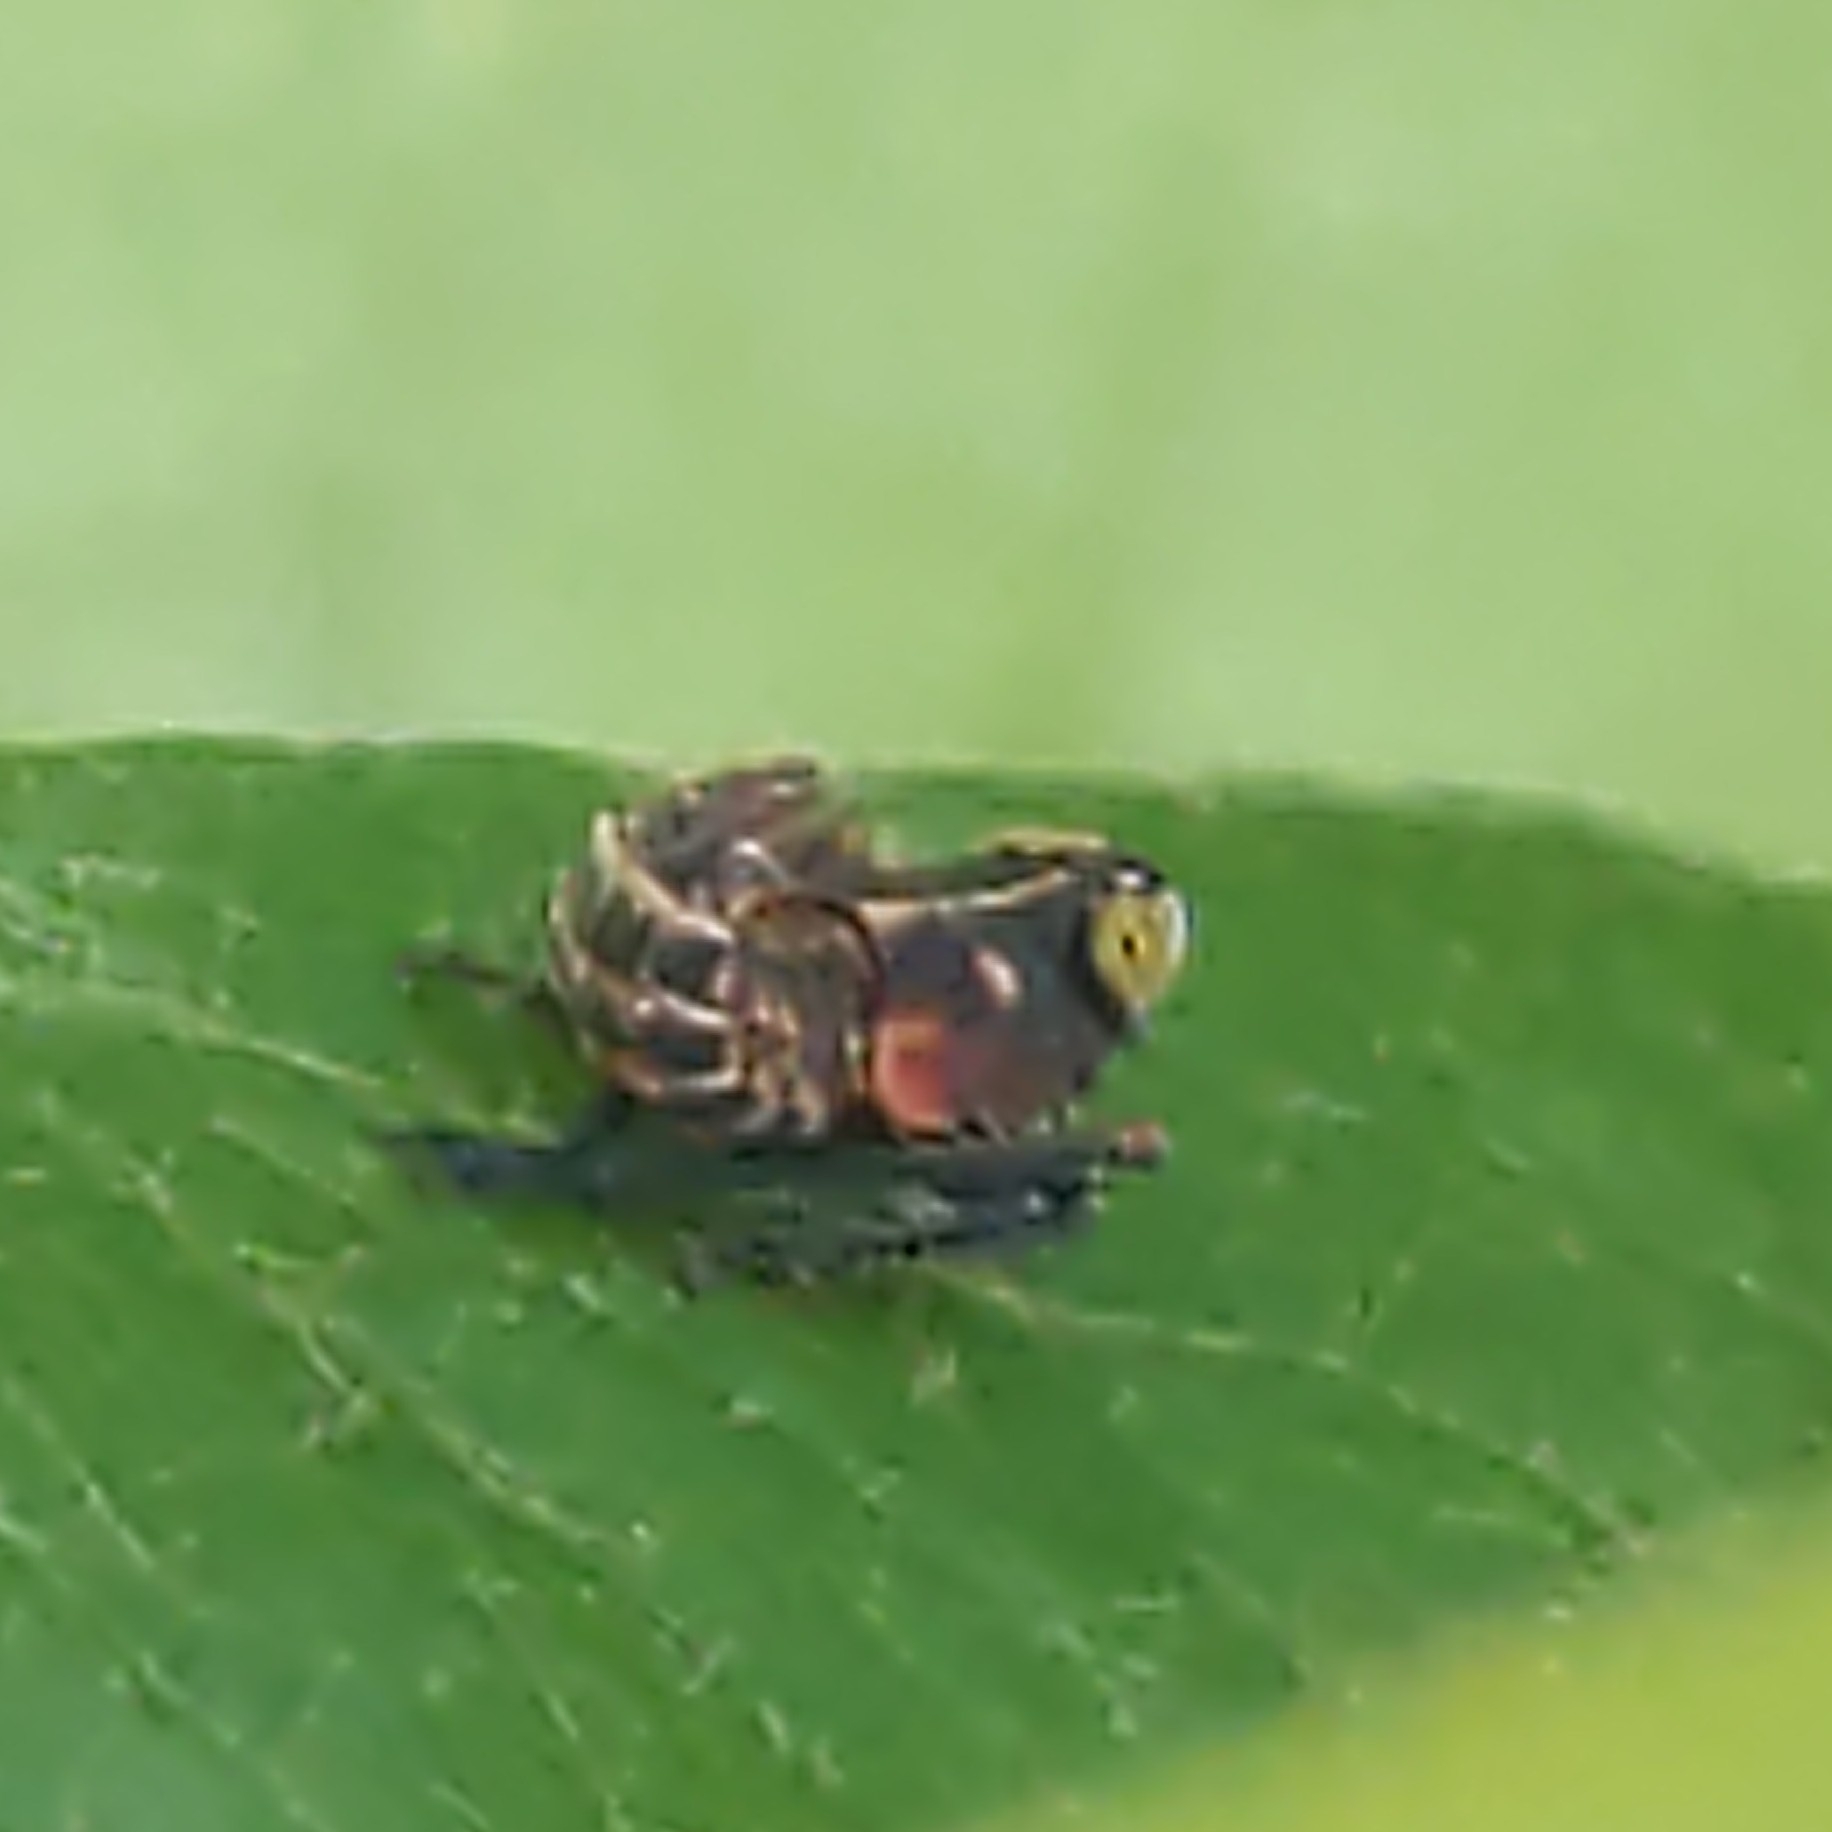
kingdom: Animalia
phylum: Arthropoda
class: Insecta
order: Hemiptera
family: Cicadellidae
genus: Jikradia
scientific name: Jikradia olitoria
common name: Coppery leafhopper
